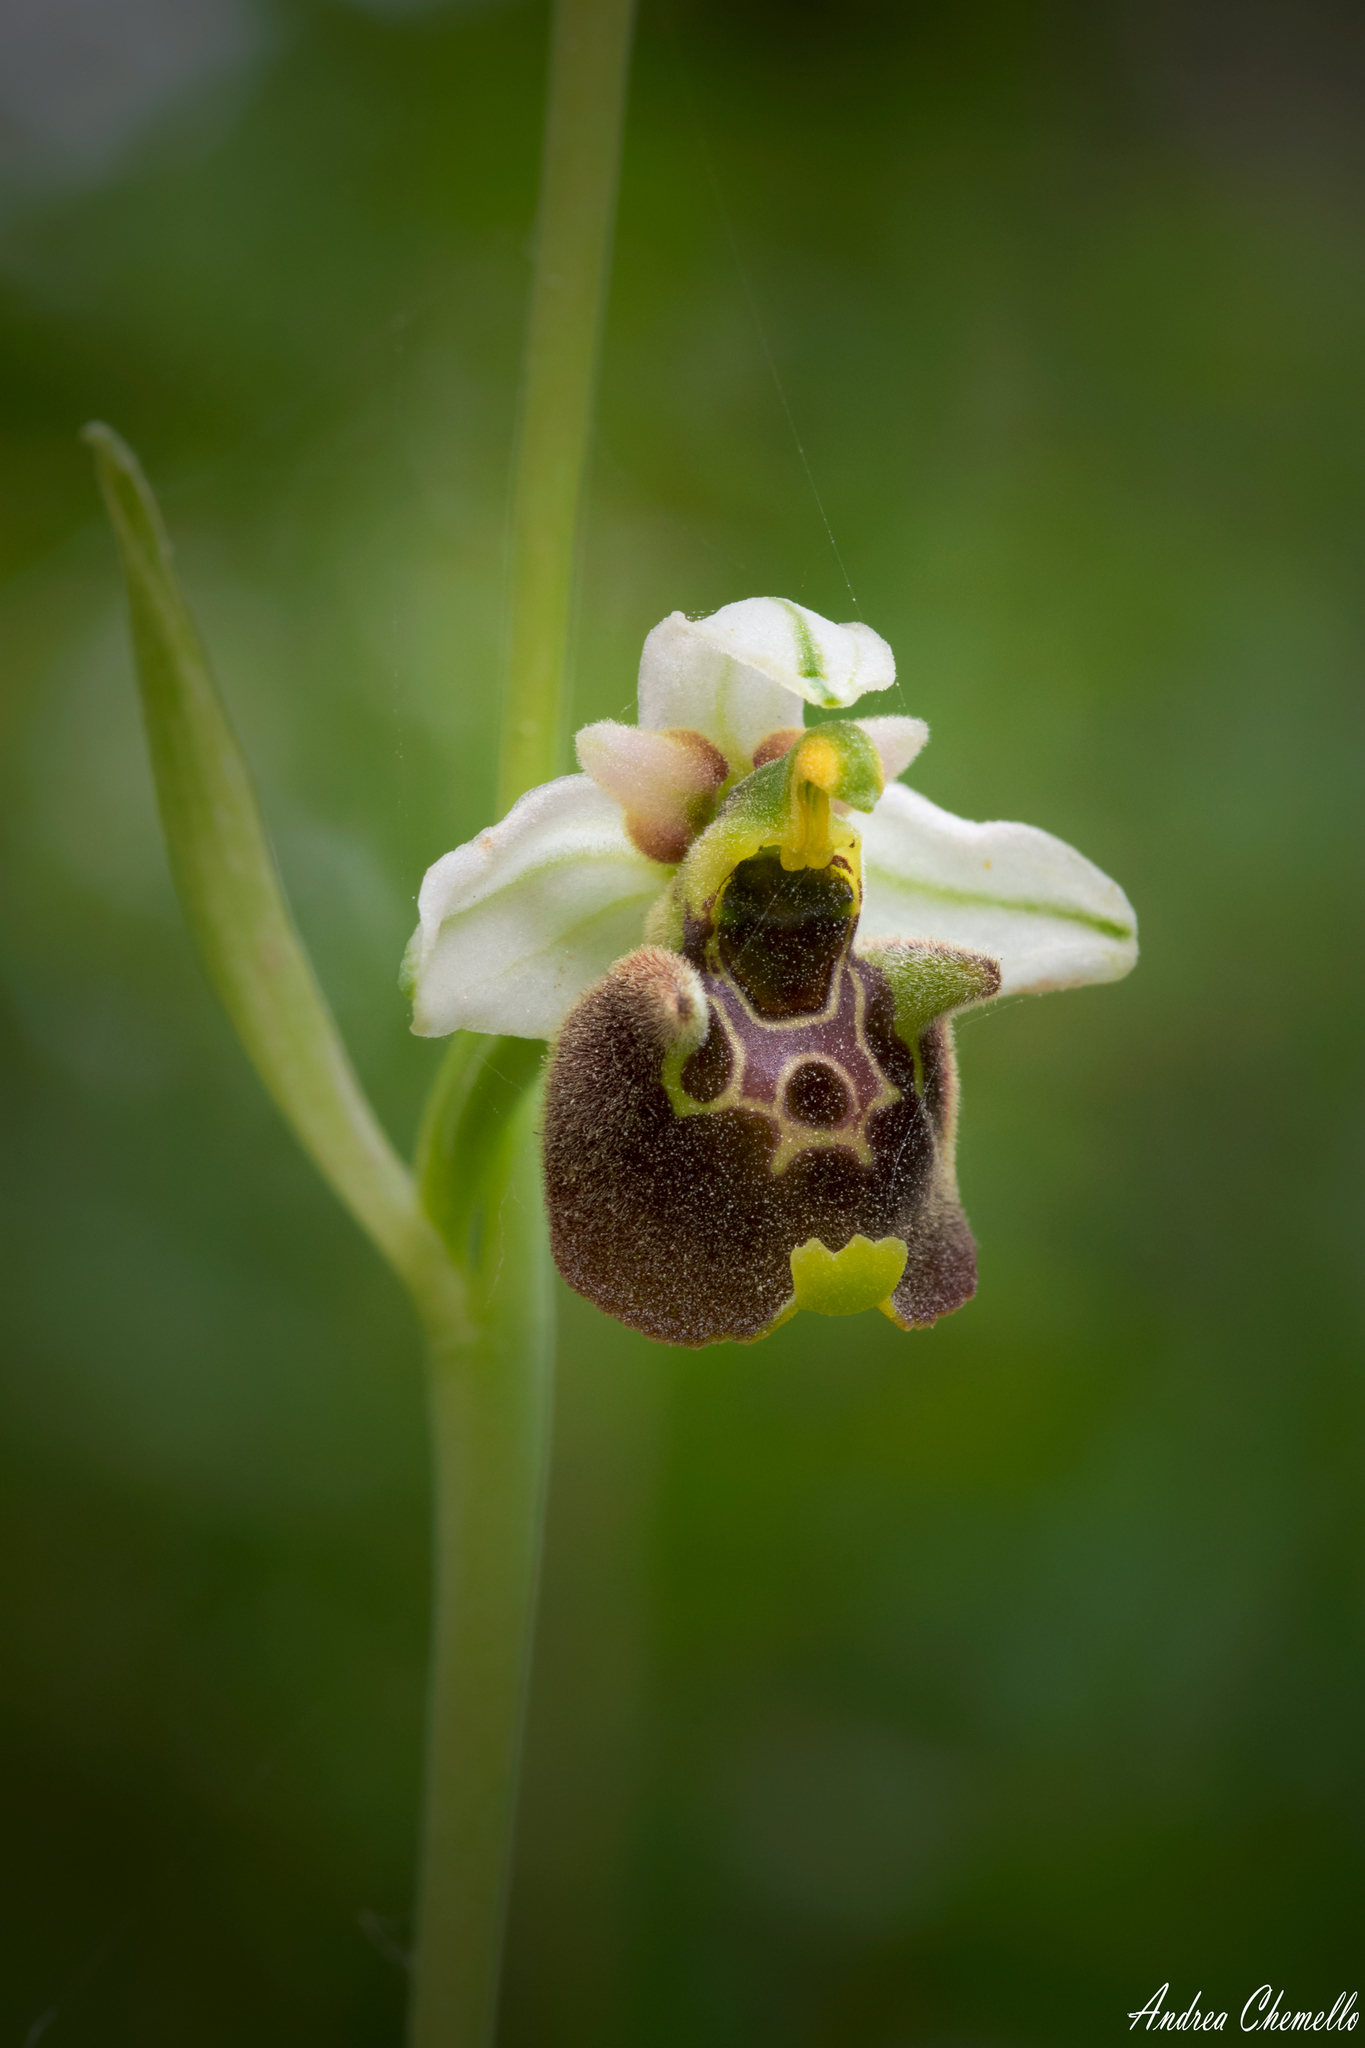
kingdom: Plantae
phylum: Tracheophyta
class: Liliopsida
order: Asparagales
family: Orchidaceae
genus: Ophrys
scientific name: Ophrys holosericea
